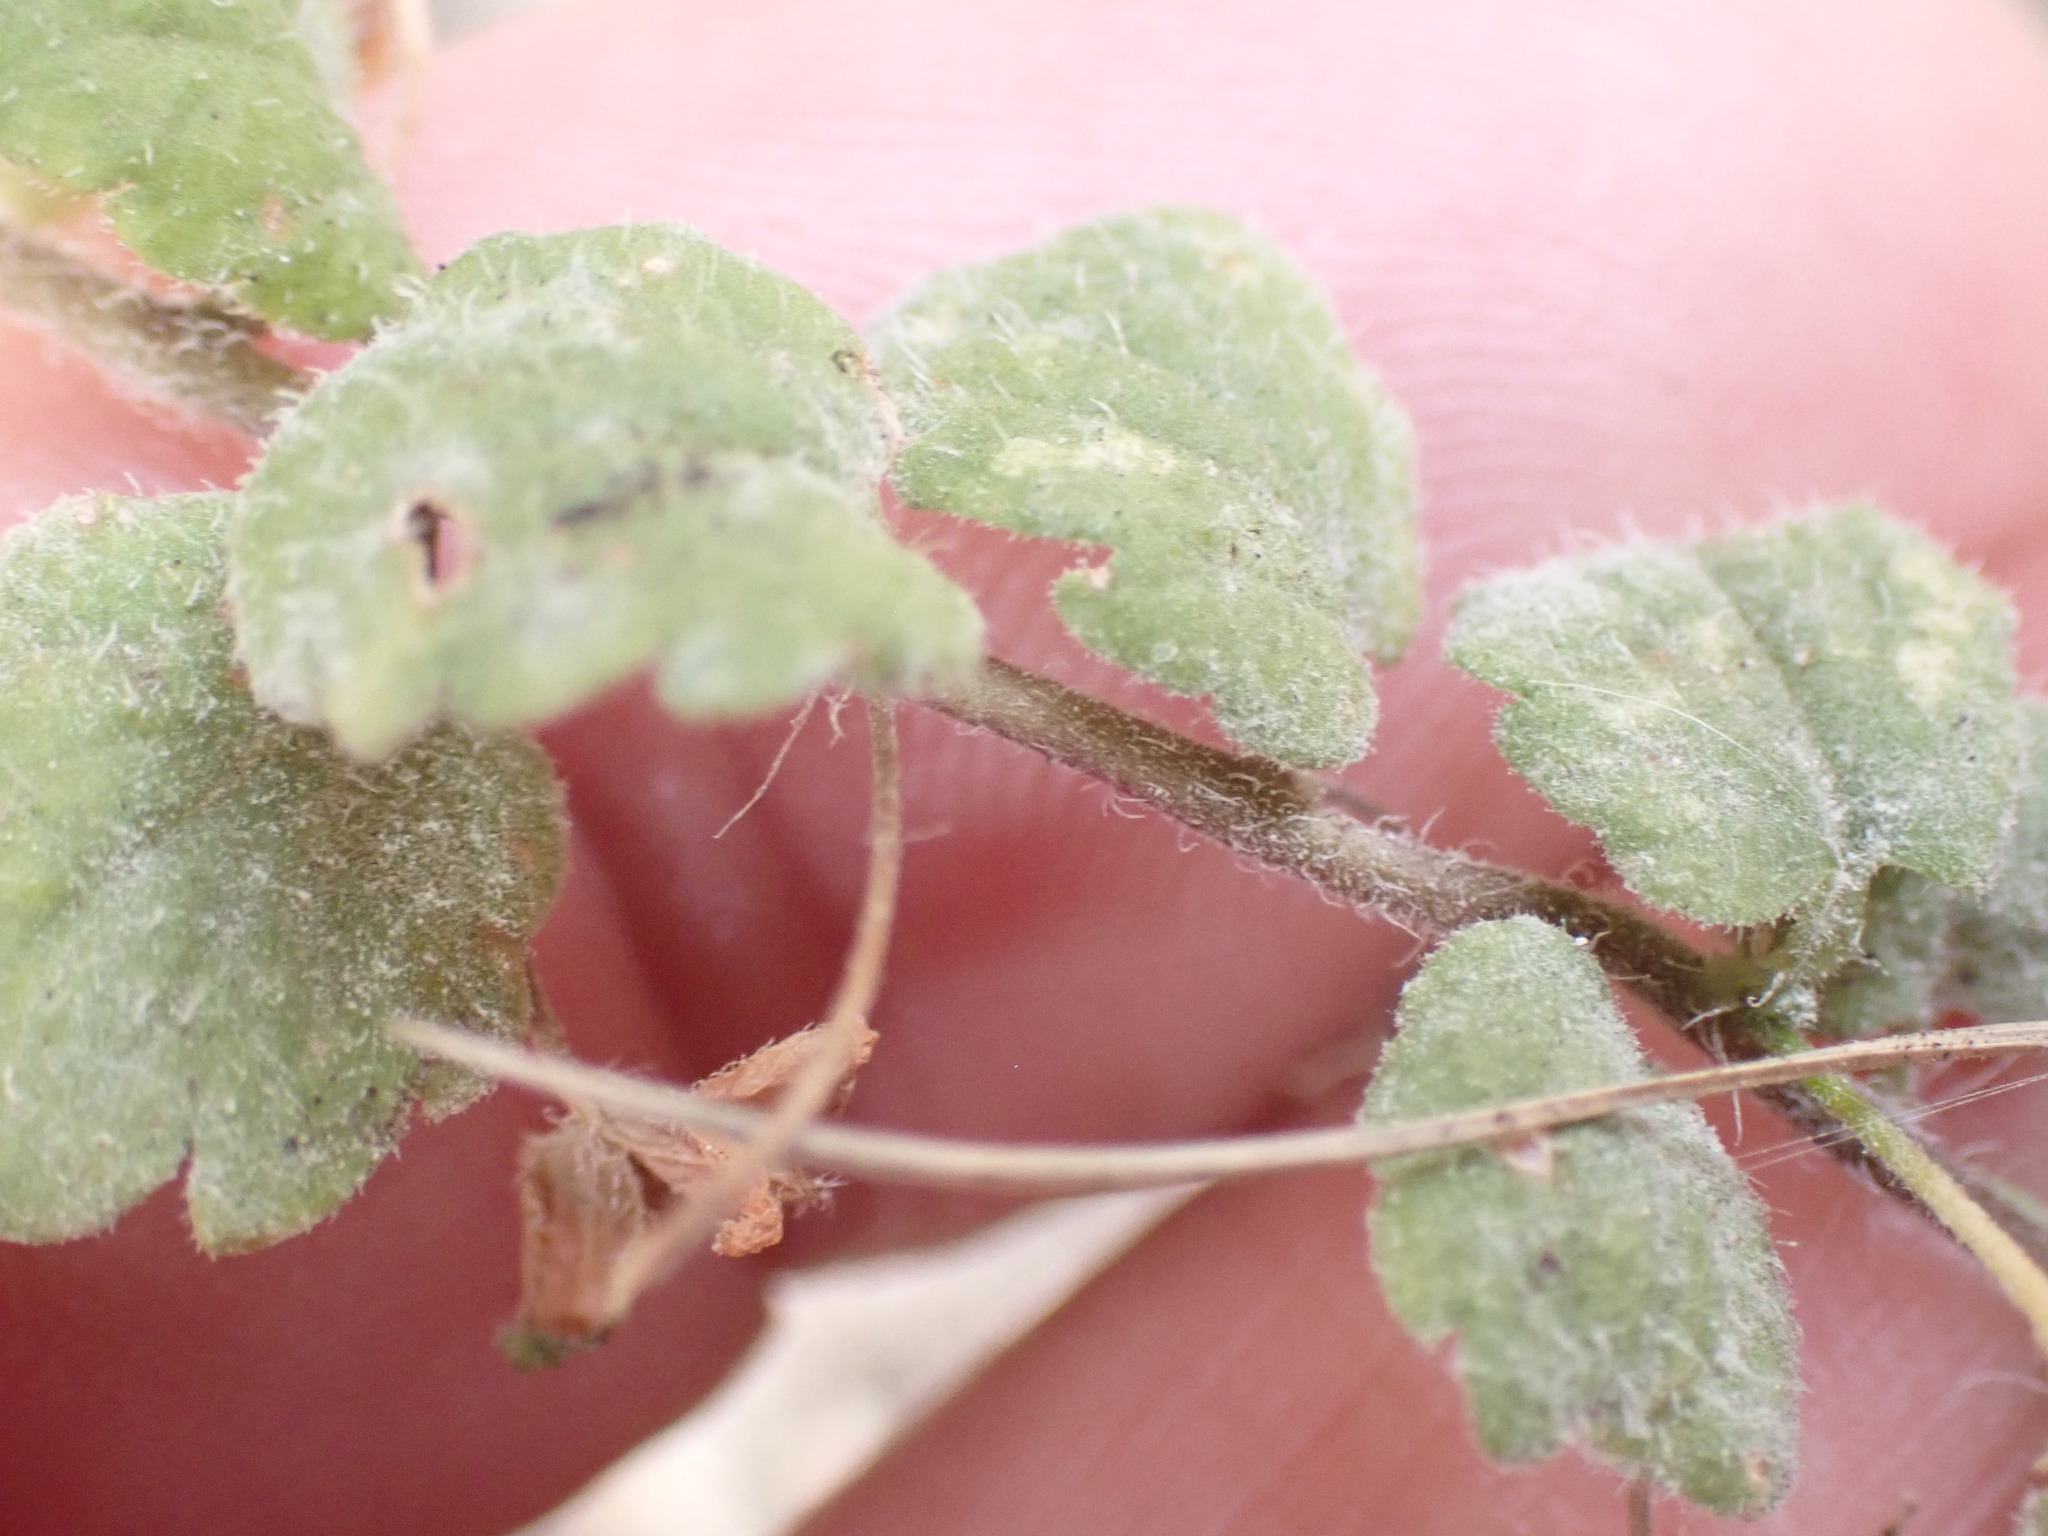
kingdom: Plantae
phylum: Tracheophyta
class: Magnoliopsida
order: Lamiales
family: Plantaginaceae
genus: Veronica
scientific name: Veronica persica
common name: Common field-speedwell
